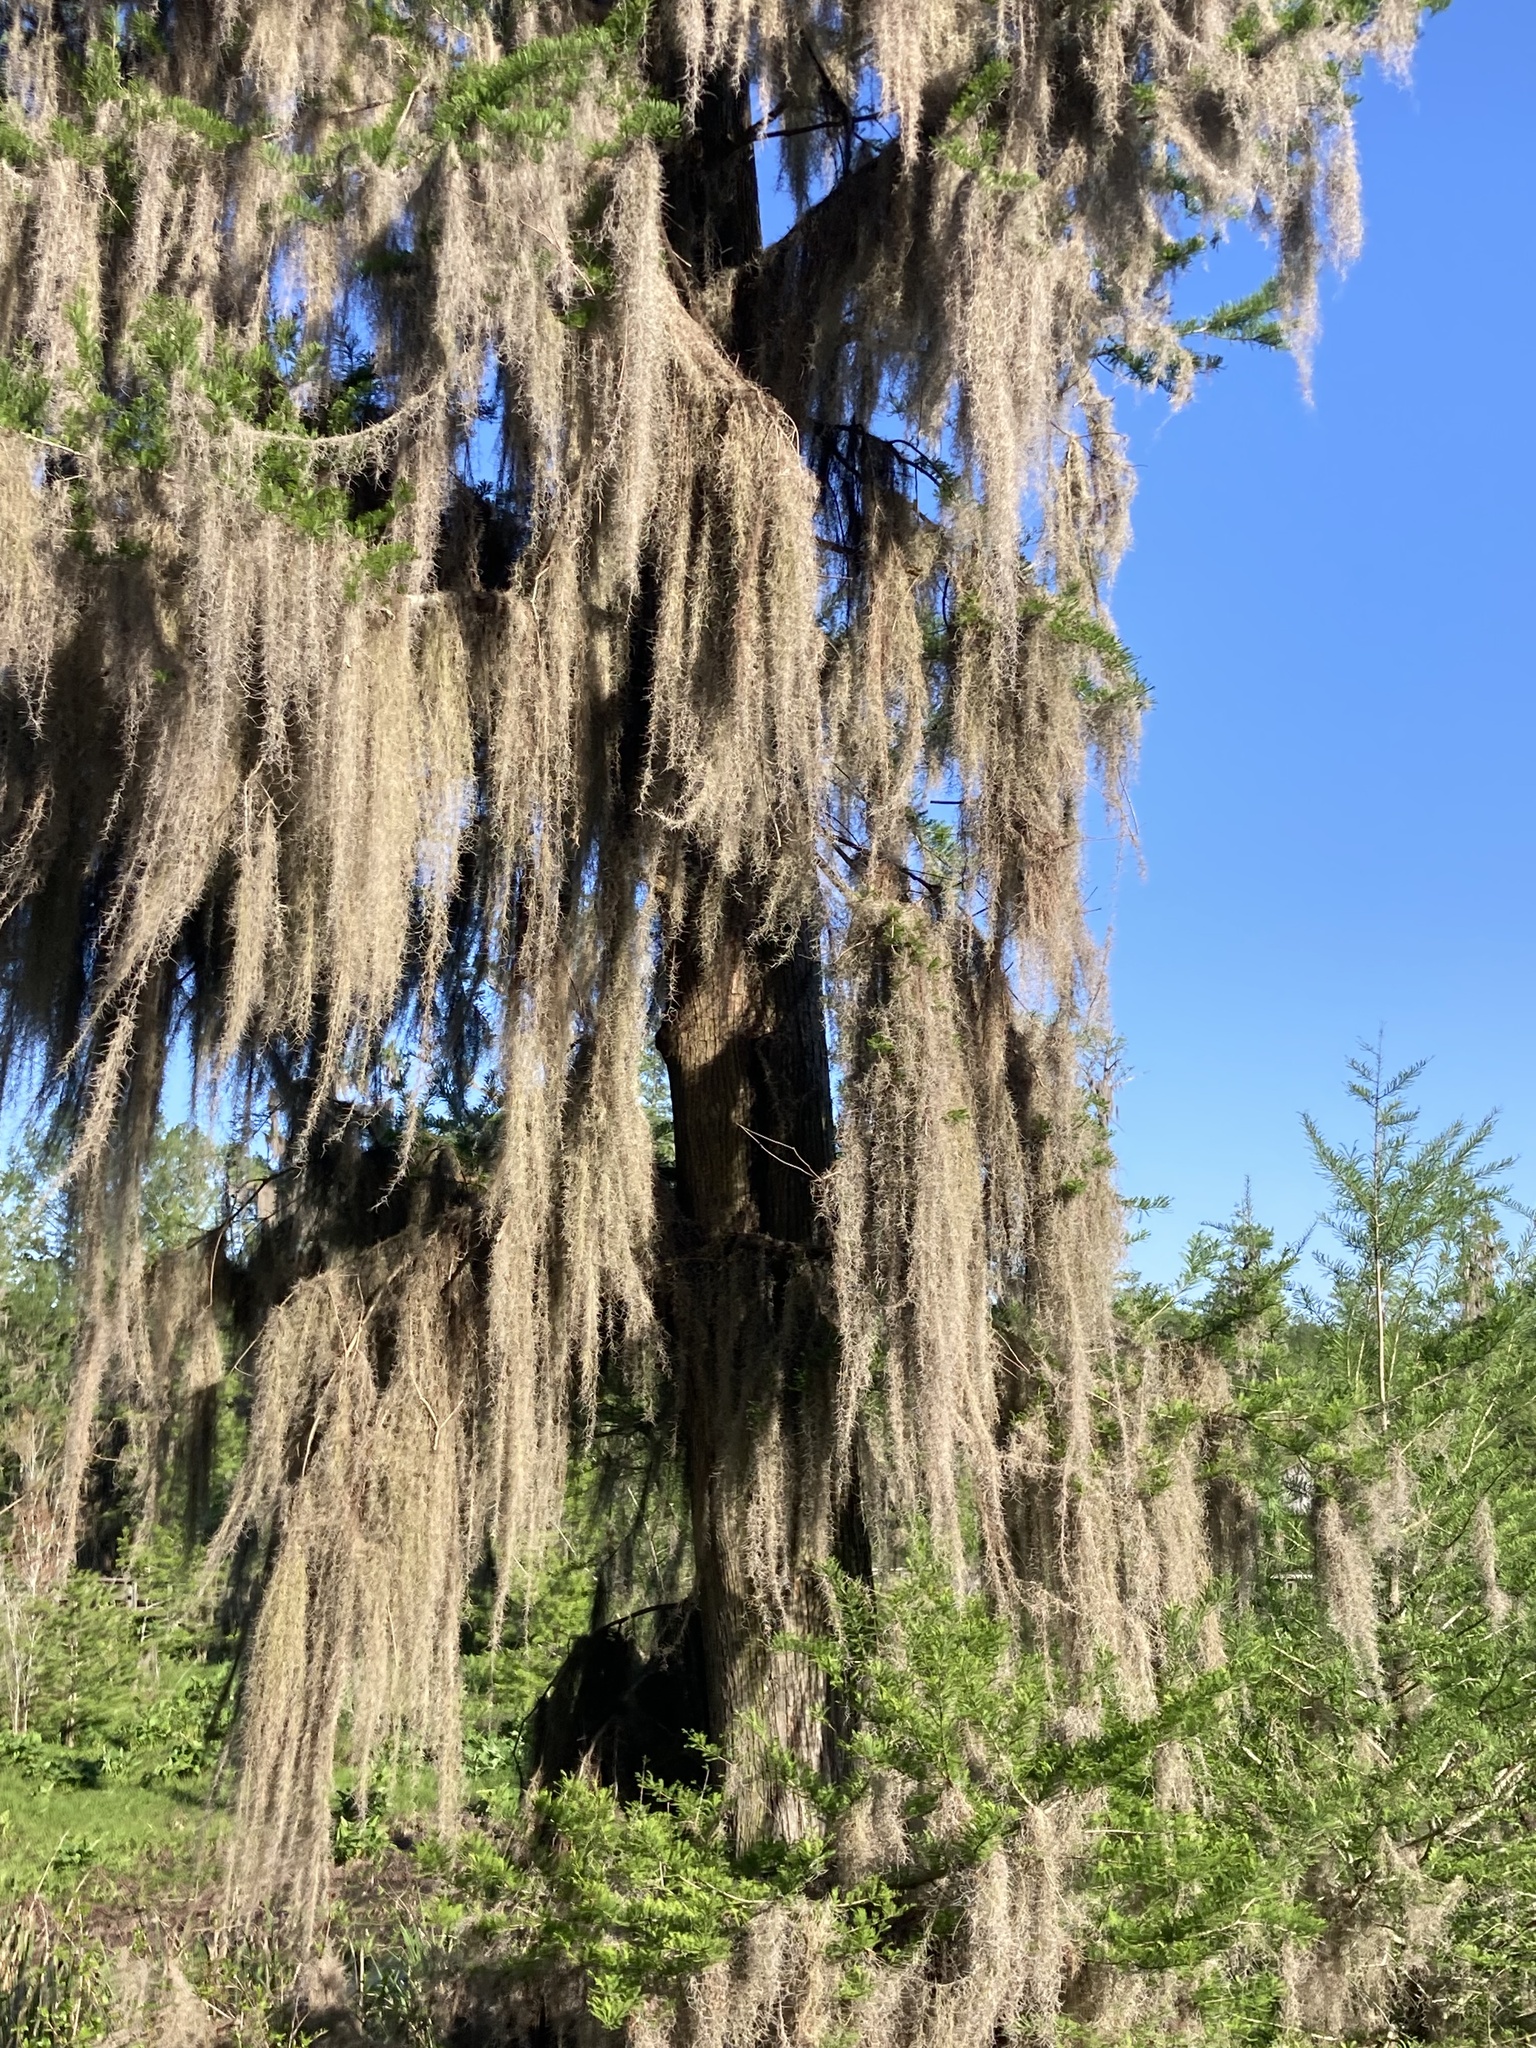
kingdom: Plantae
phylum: Tracheophyta
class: Liliopsida
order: Poales
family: Bromeliaceae
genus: Tillandsia
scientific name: Tillandsia usneoides
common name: Spanish moss
